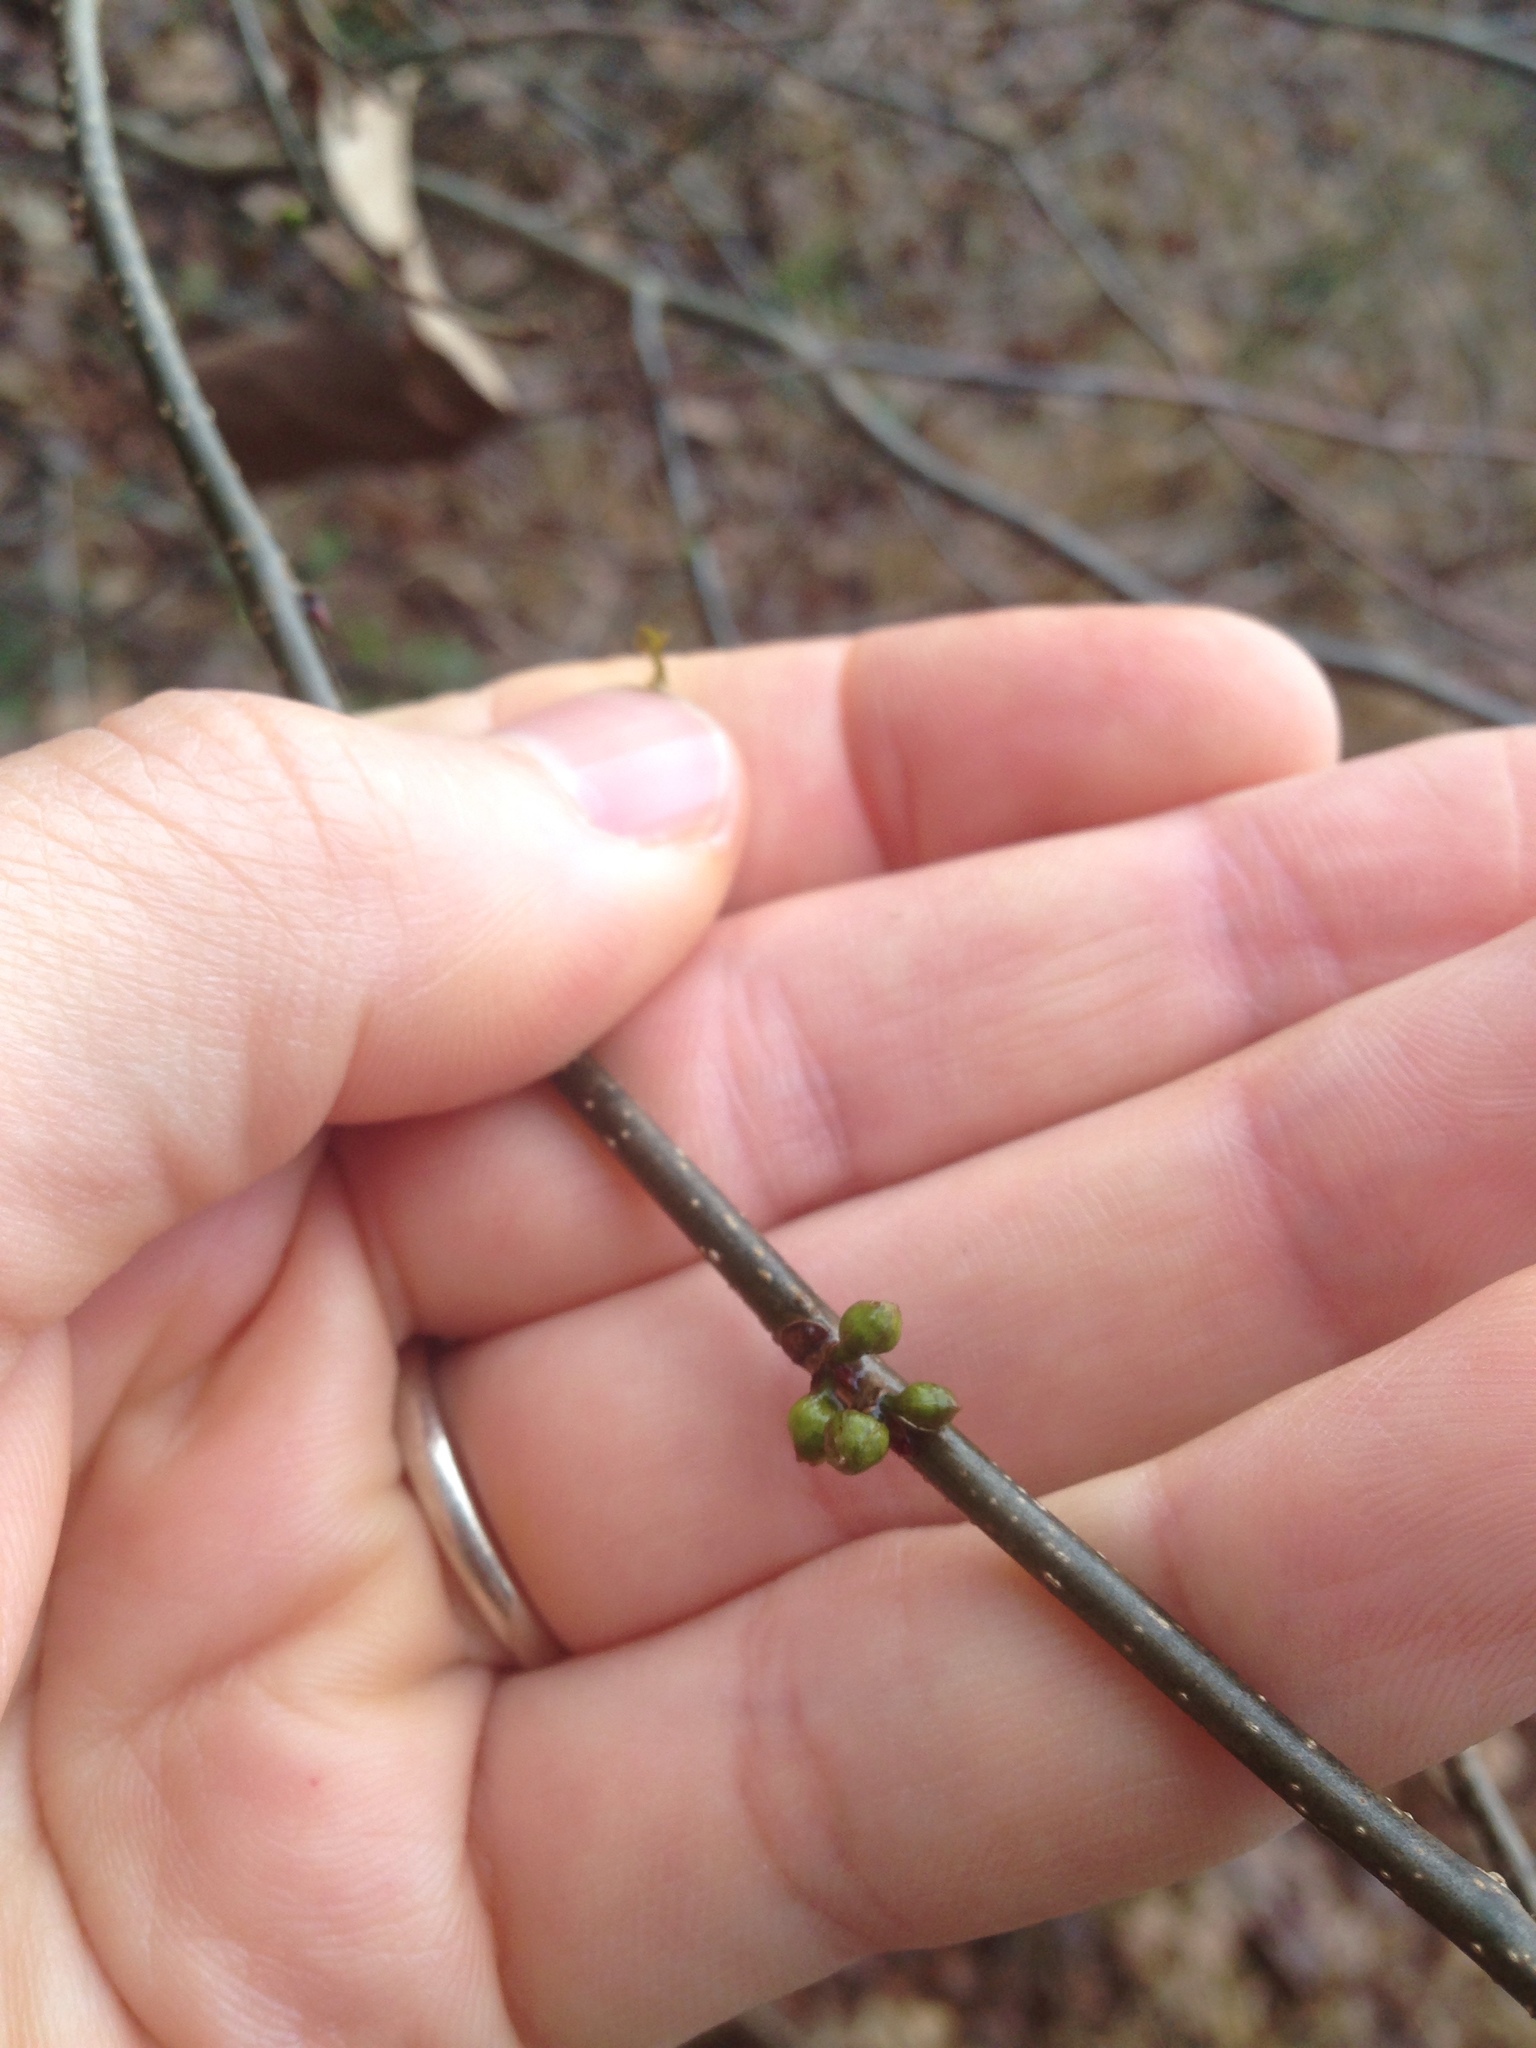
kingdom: Plantae
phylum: Tracheophyta
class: Magnoliopsida
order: Laurales
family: Lauraceae
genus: Lindera
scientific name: Lindera benzoin
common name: Spicebush
